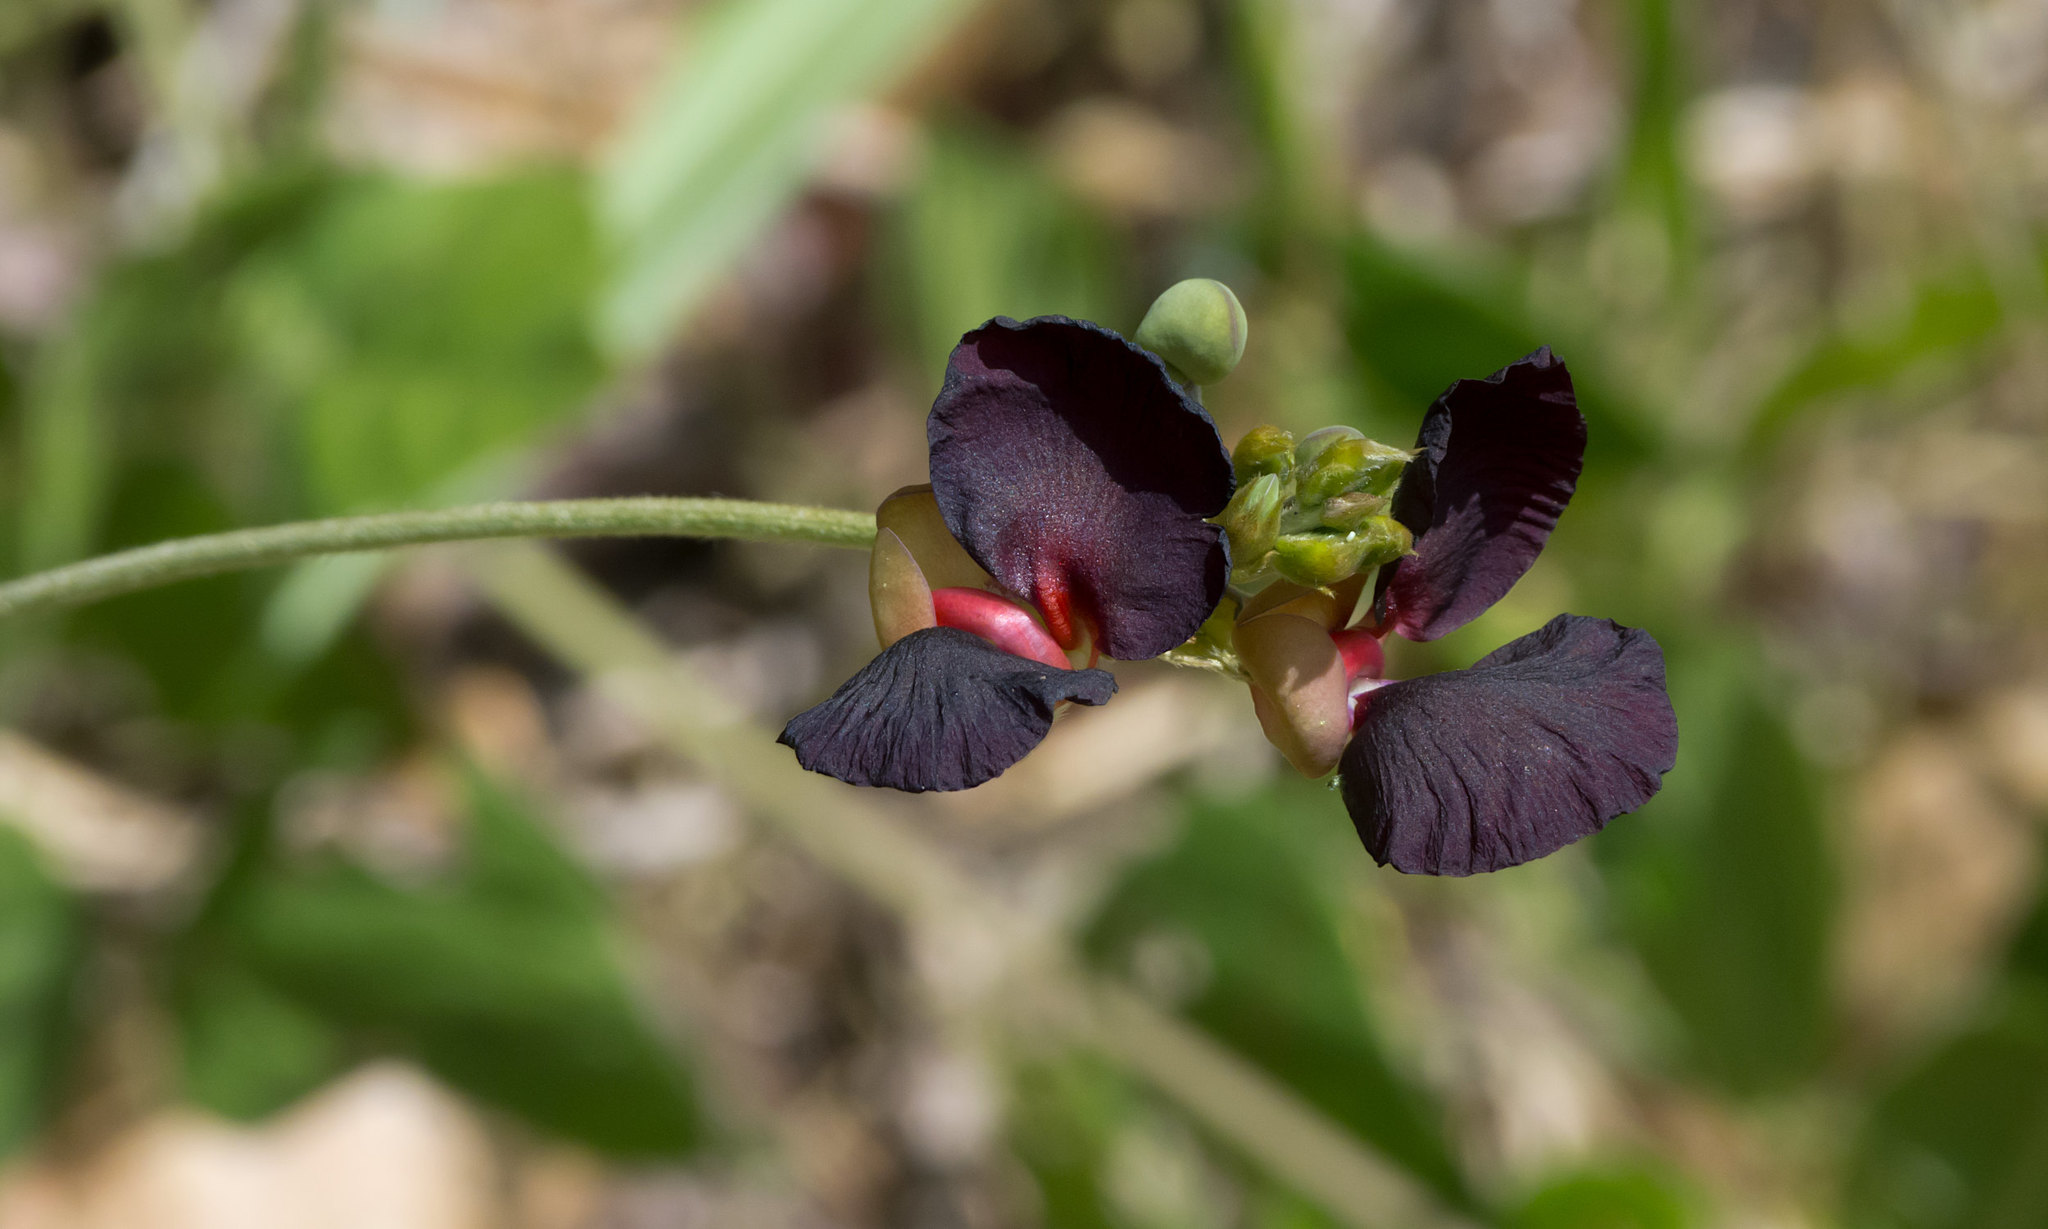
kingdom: Plantae
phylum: Tracheophyta
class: Magnoliopsida
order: Fabales
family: Fabaceae
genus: Macroptilium
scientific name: Macroptilium atropurpureum
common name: Purple bushbean
